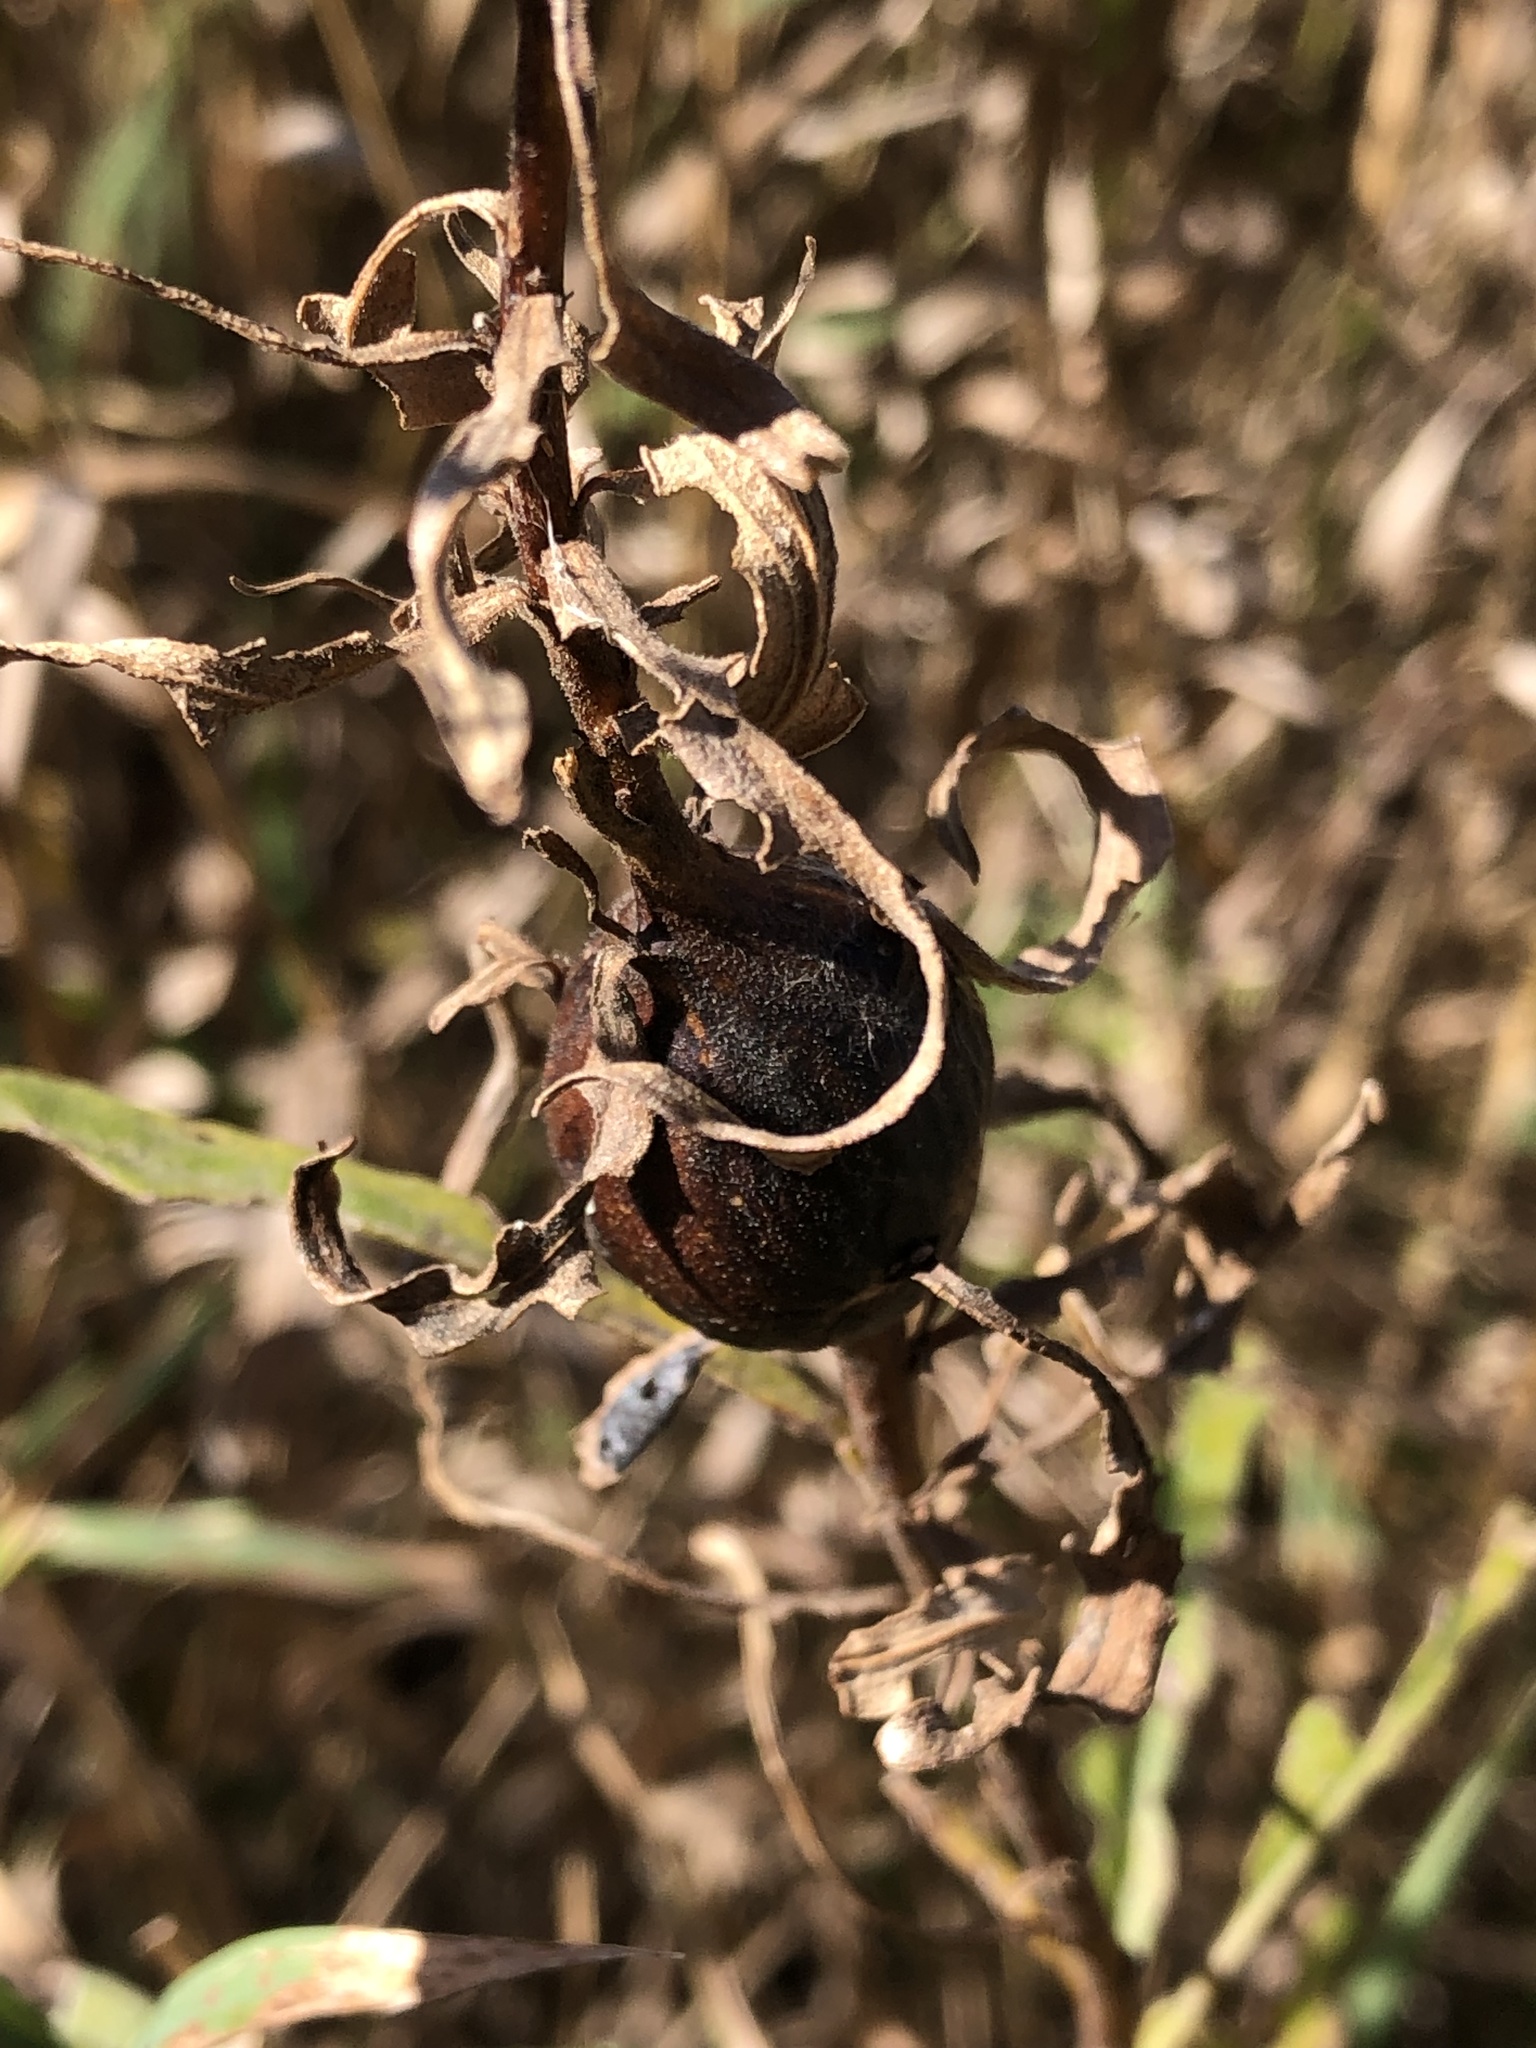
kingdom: Animalia
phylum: Arthropoda
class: Insecta
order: Diptera
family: Tephritidae
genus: Eurosta
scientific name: Eurosta solidaginis
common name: Goldenrod gall fly
